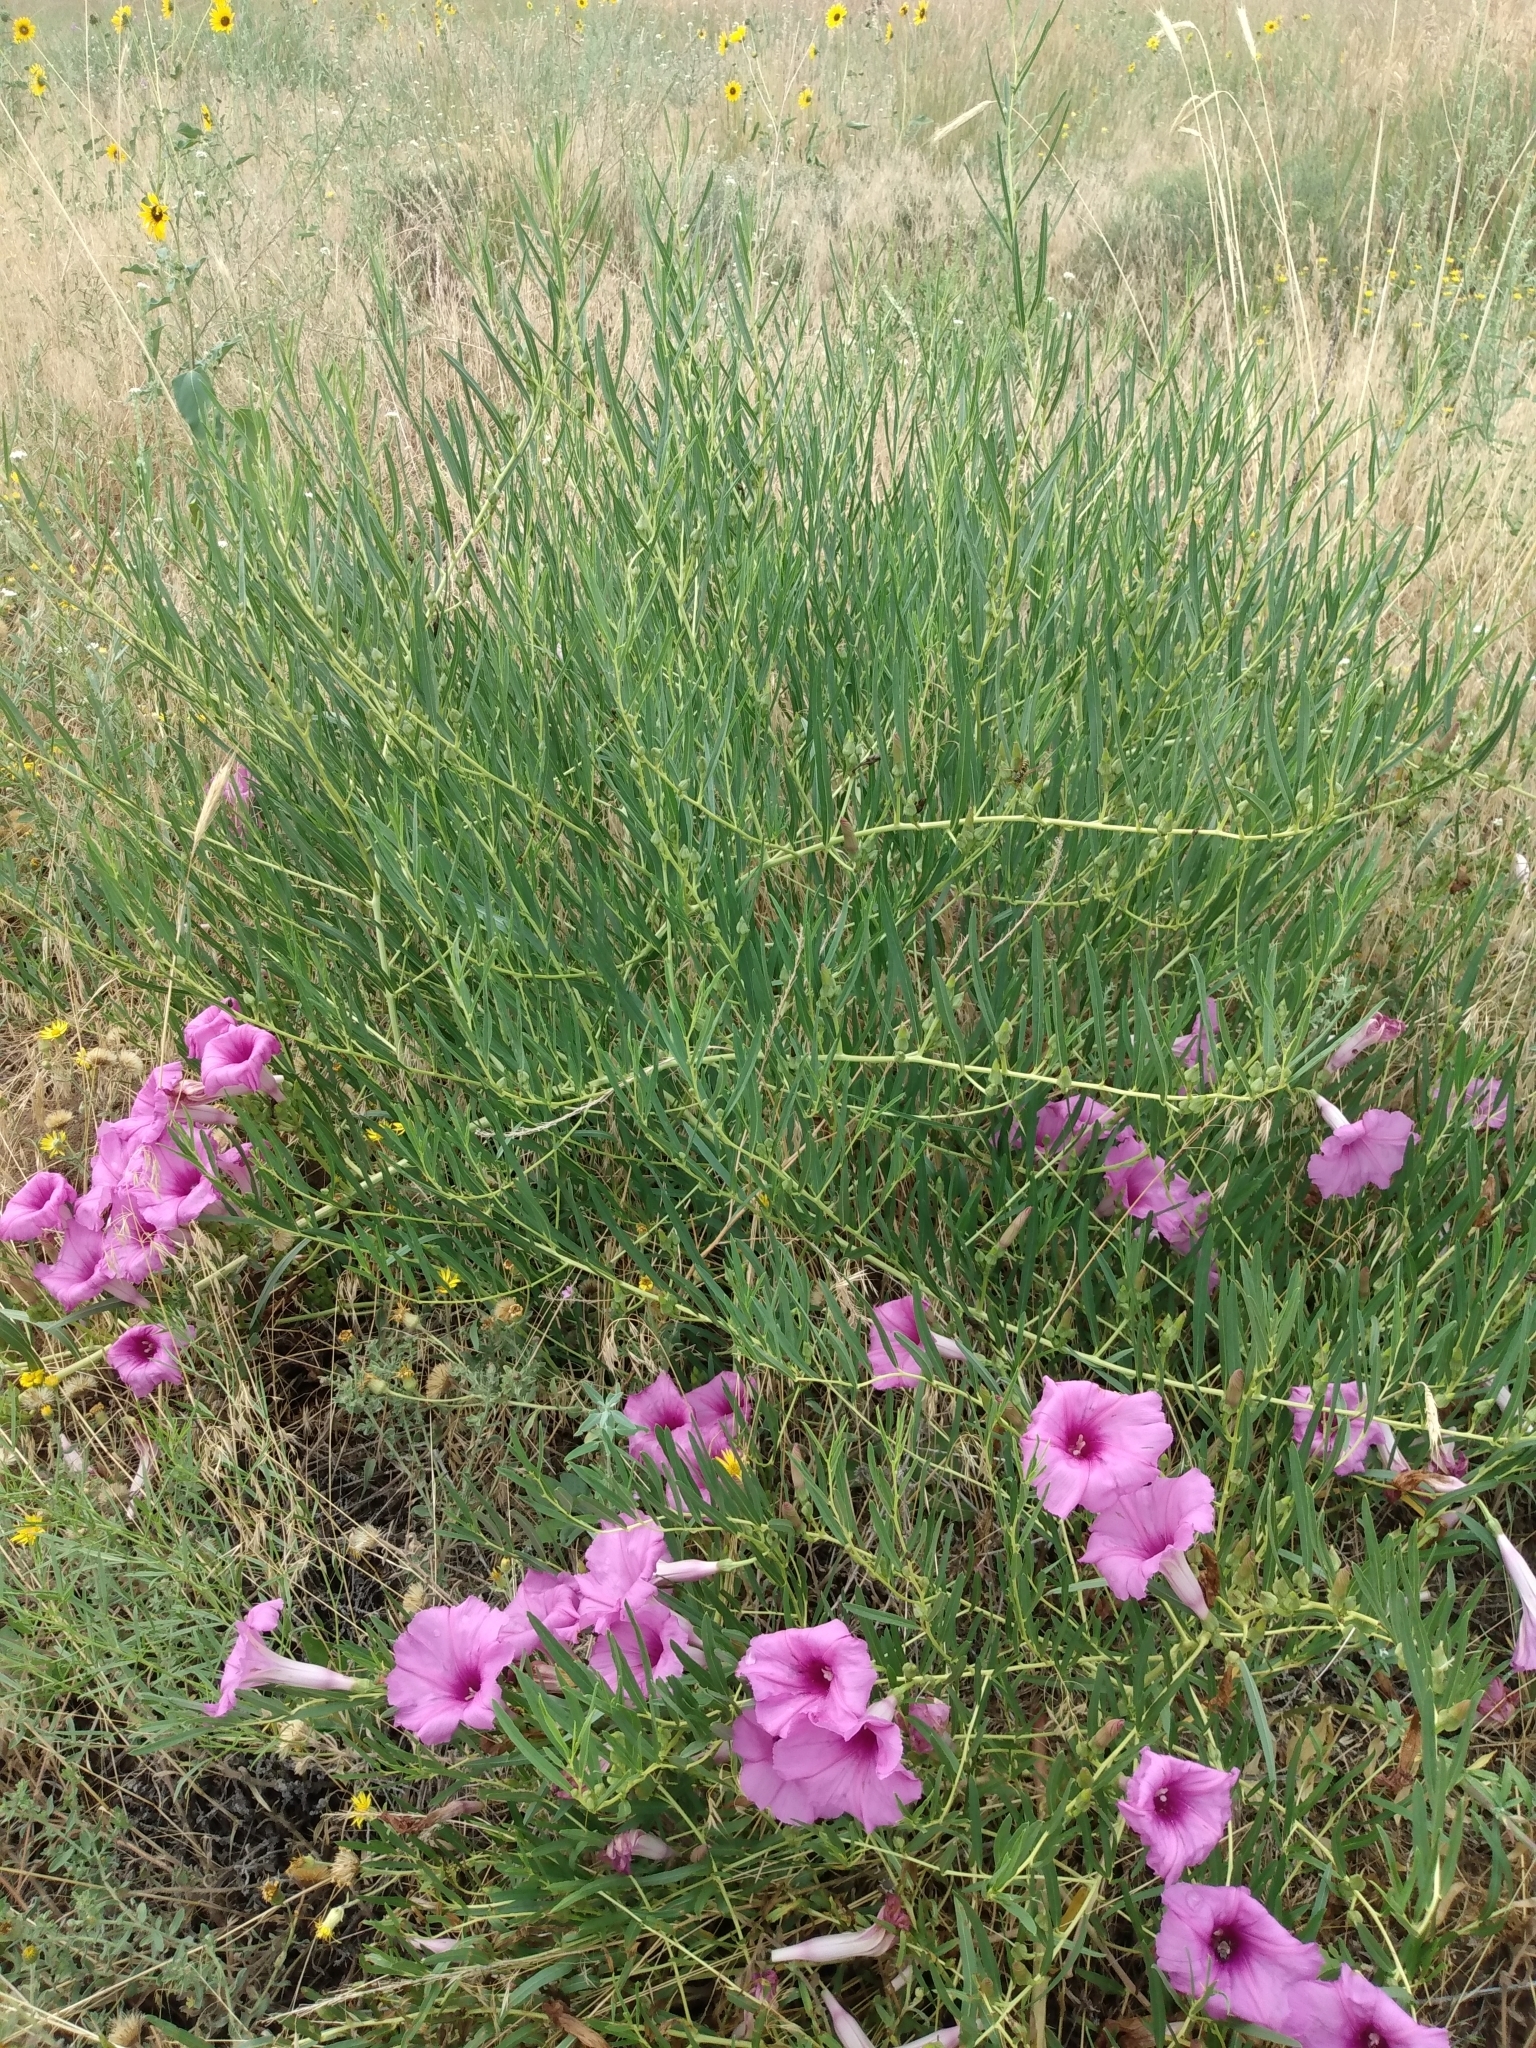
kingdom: Plantae
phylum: Tracheophyta
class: Magnoliopsida
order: Solanales
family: Convolvulaceae
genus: Ipomoea
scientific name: Ipomoea leptophylla
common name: Bush moonflower
